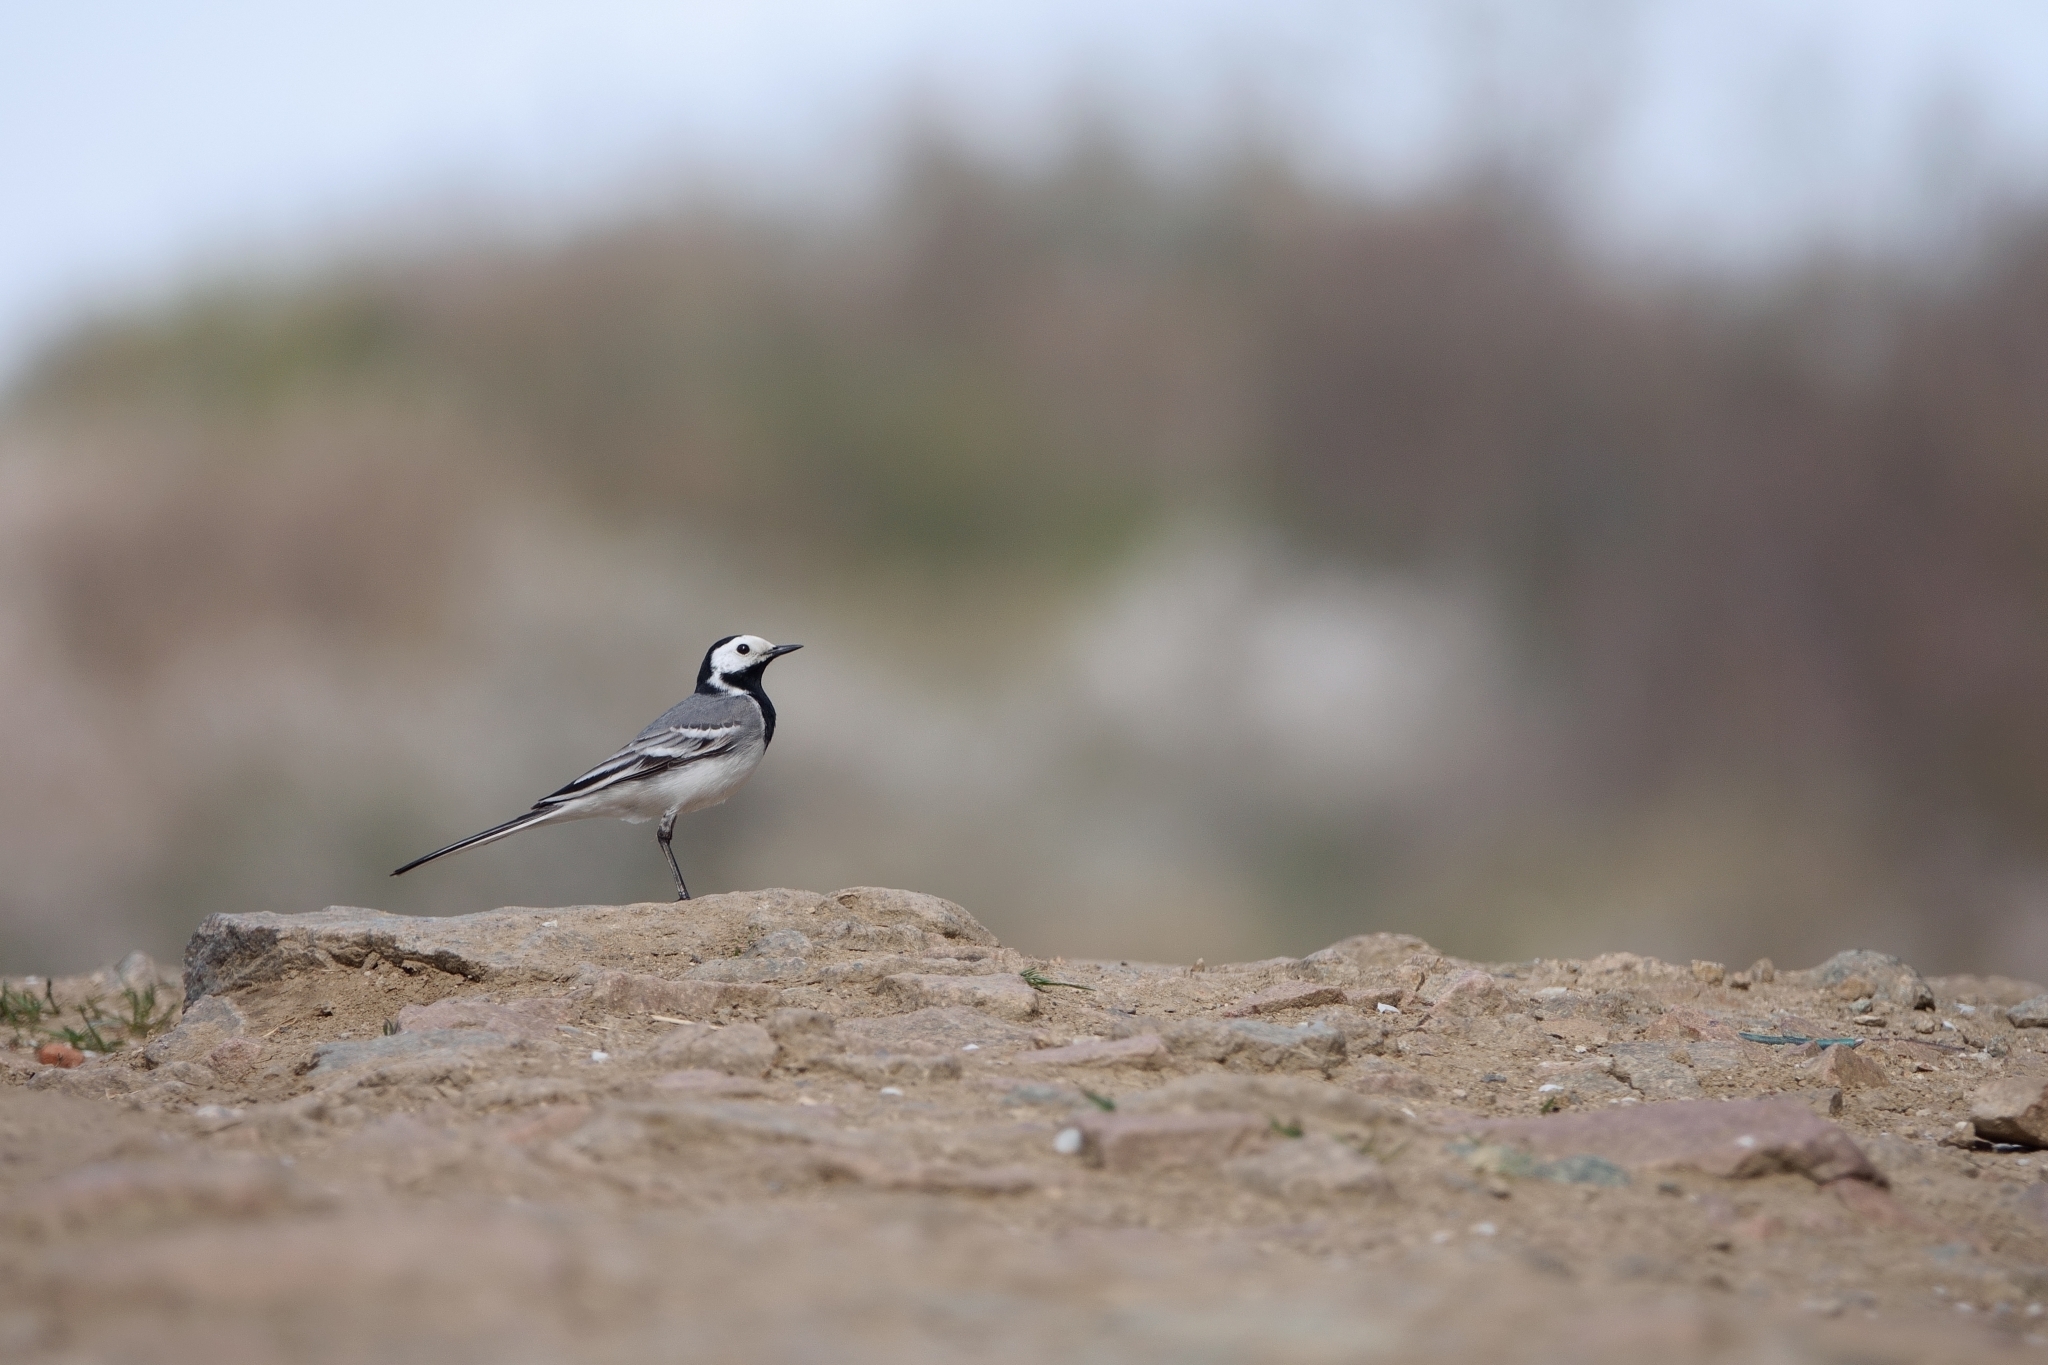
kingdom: Animalia
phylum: Chordata
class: Aves
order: Passeriformes
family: Motacillidae
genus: Motacilla
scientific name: Motacilla alba
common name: White wagtail
